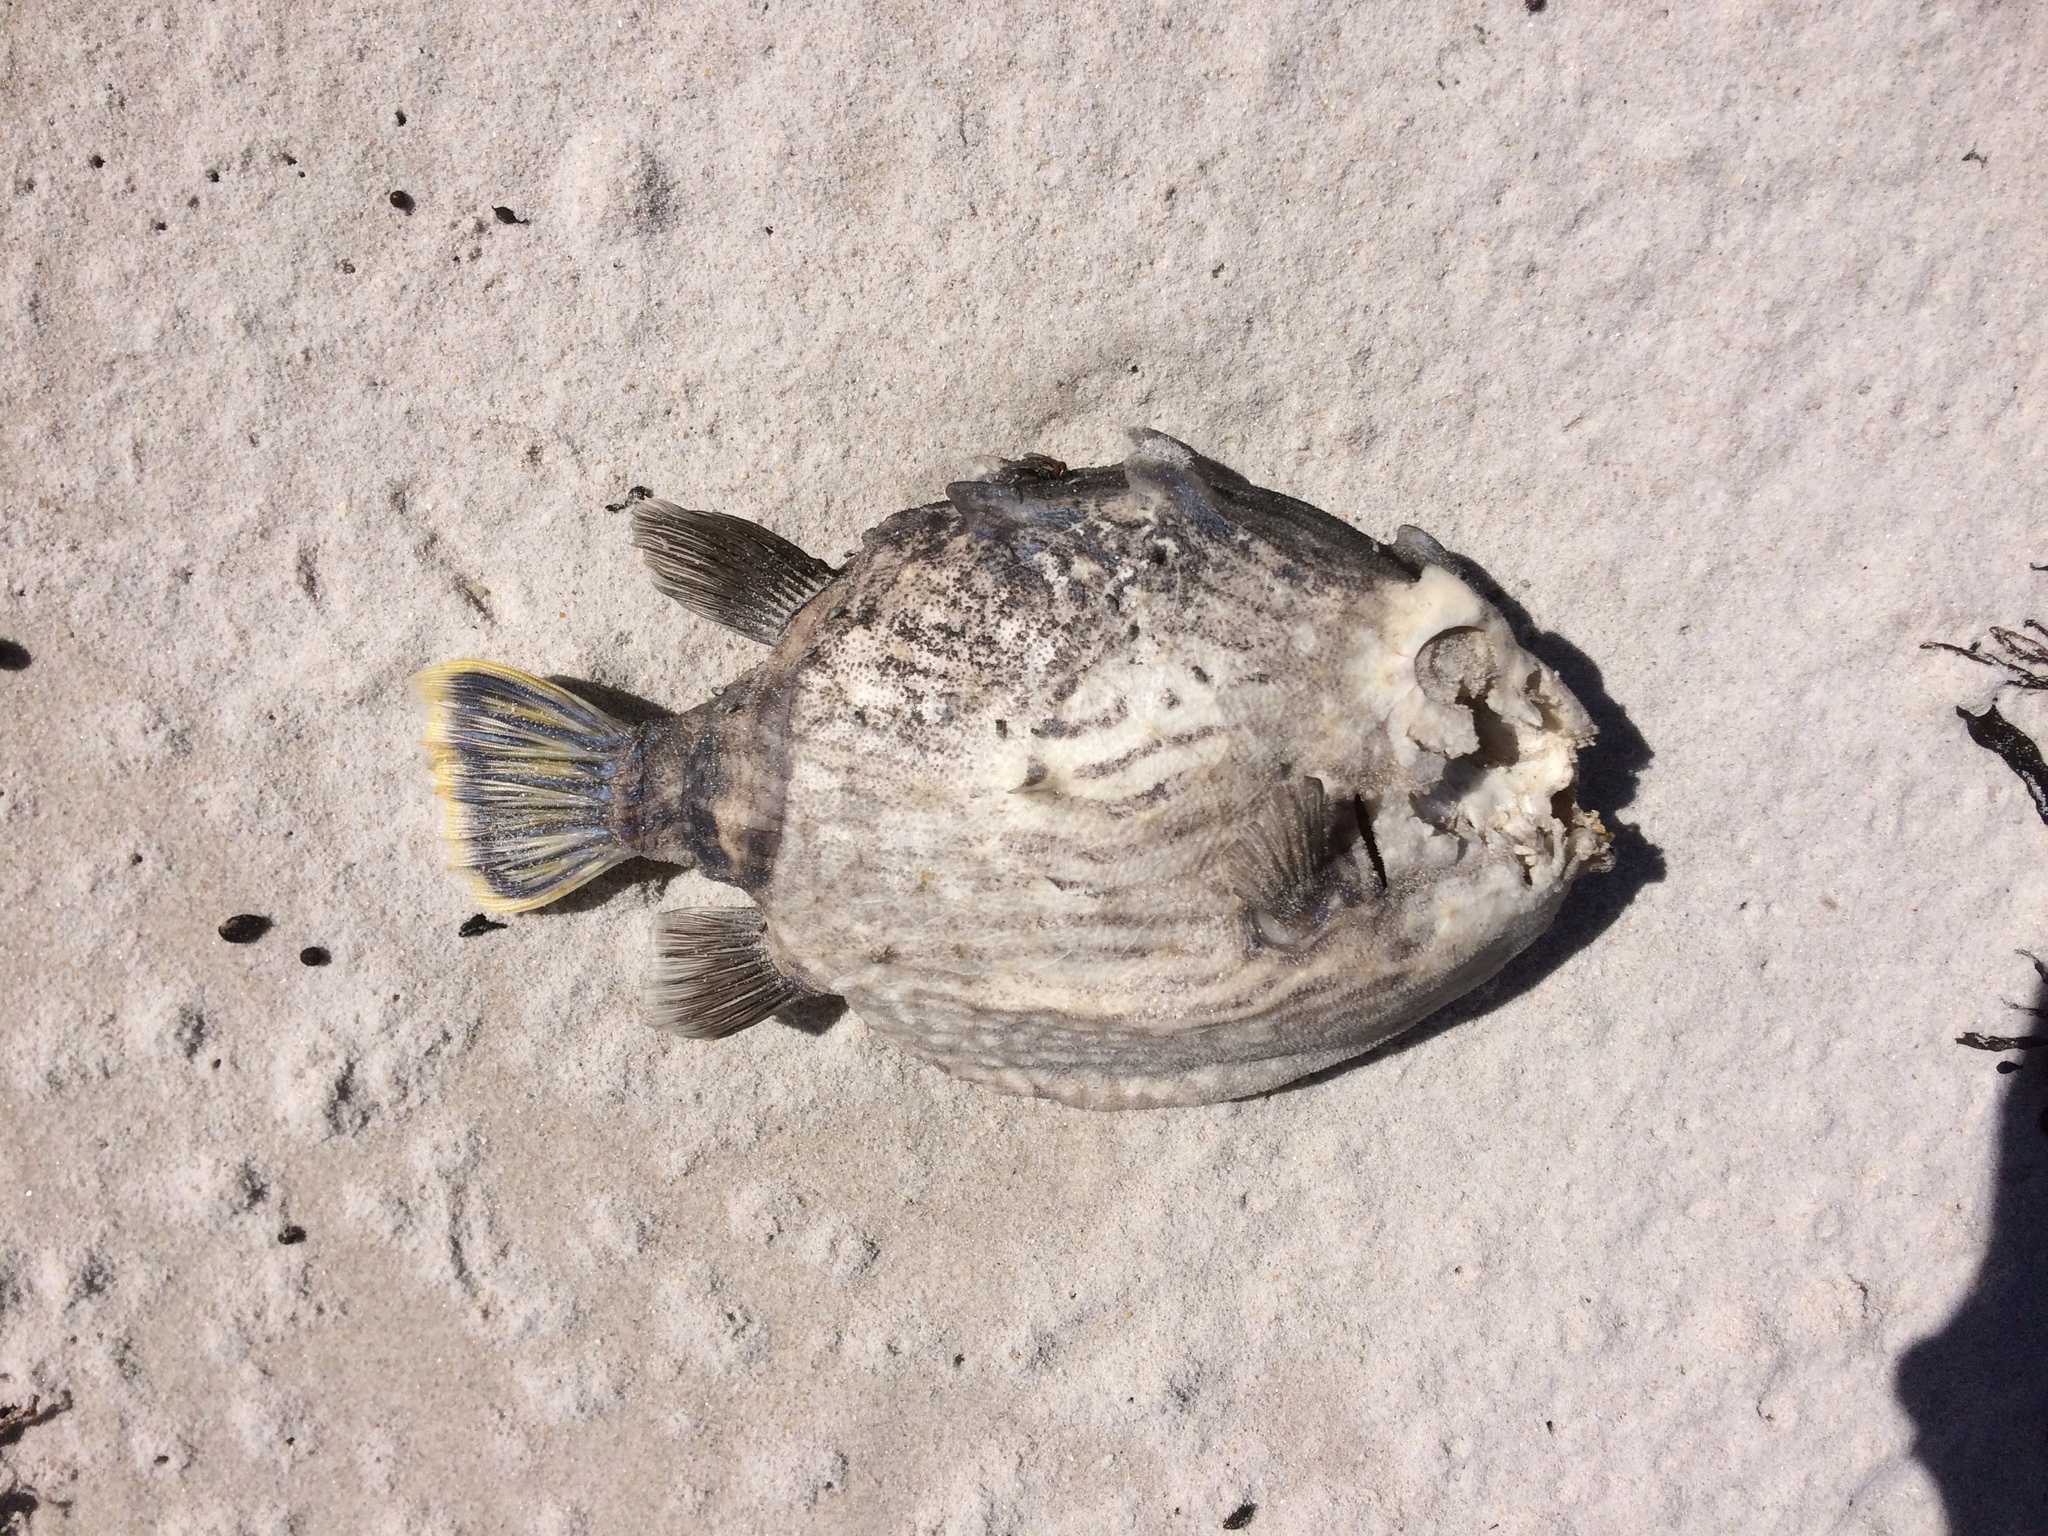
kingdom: Animalia
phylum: Chordata
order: Tetraodontiformes
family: Aracanidae
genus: Aracana
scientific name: Aracana aurita
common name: Shaw’s cowfish
